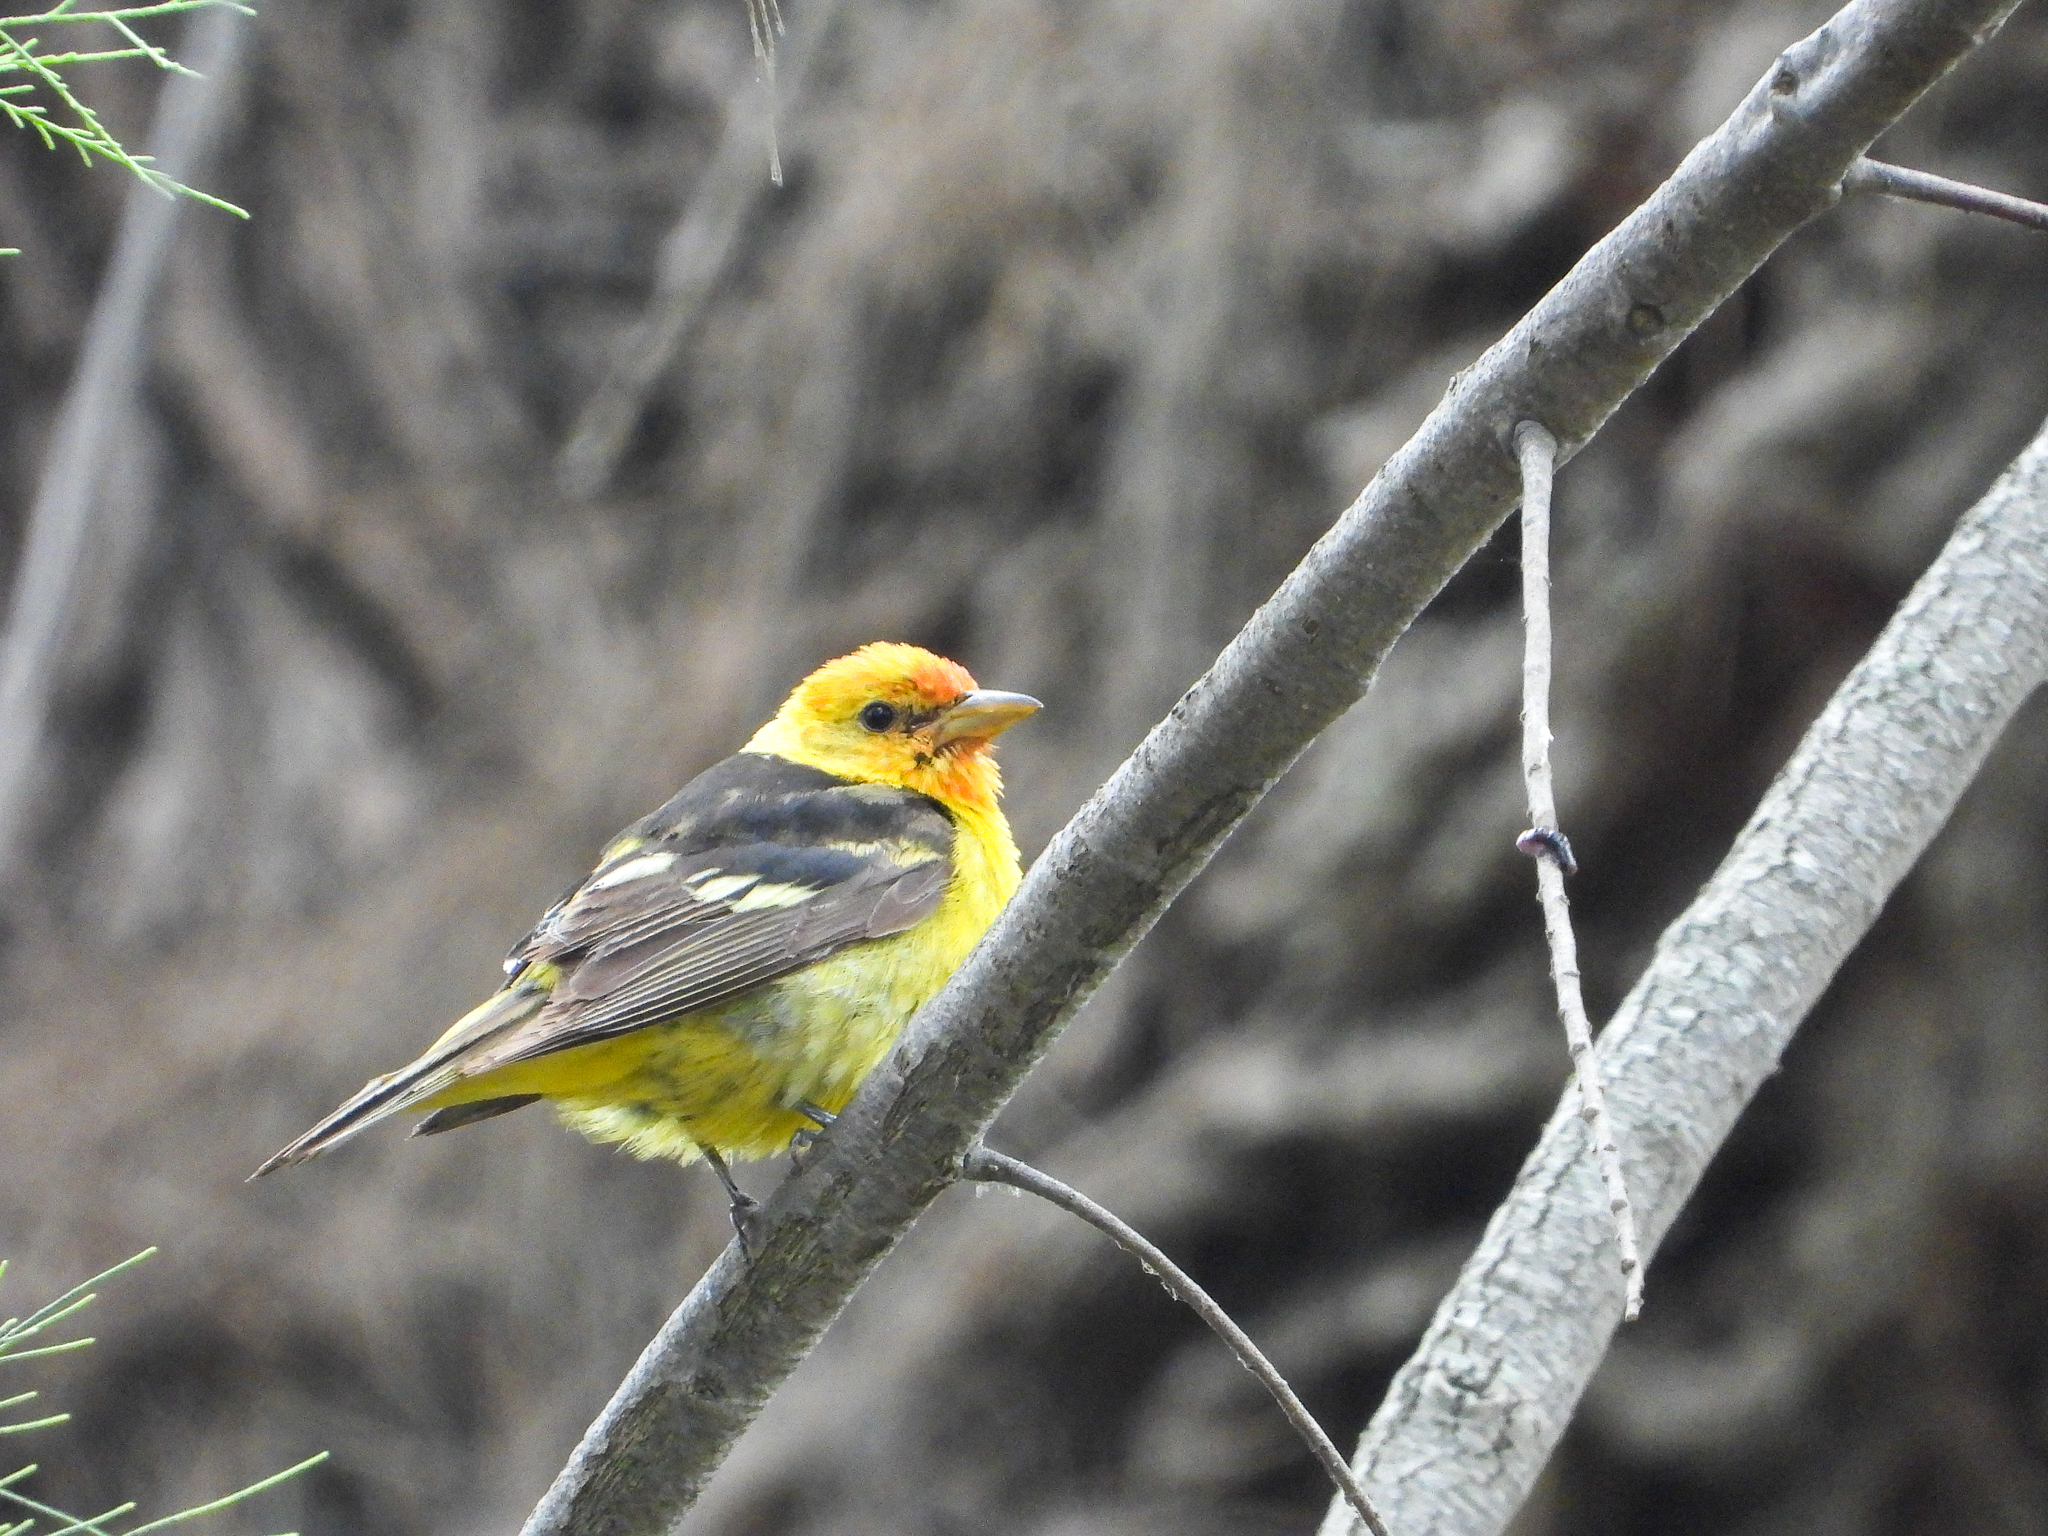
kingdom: Animalia
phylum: Chordata
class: Aves
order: Passeriformes
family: Cardinalidae
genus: Piranga
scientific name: Piranga ludoviciana
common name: Western tanager
